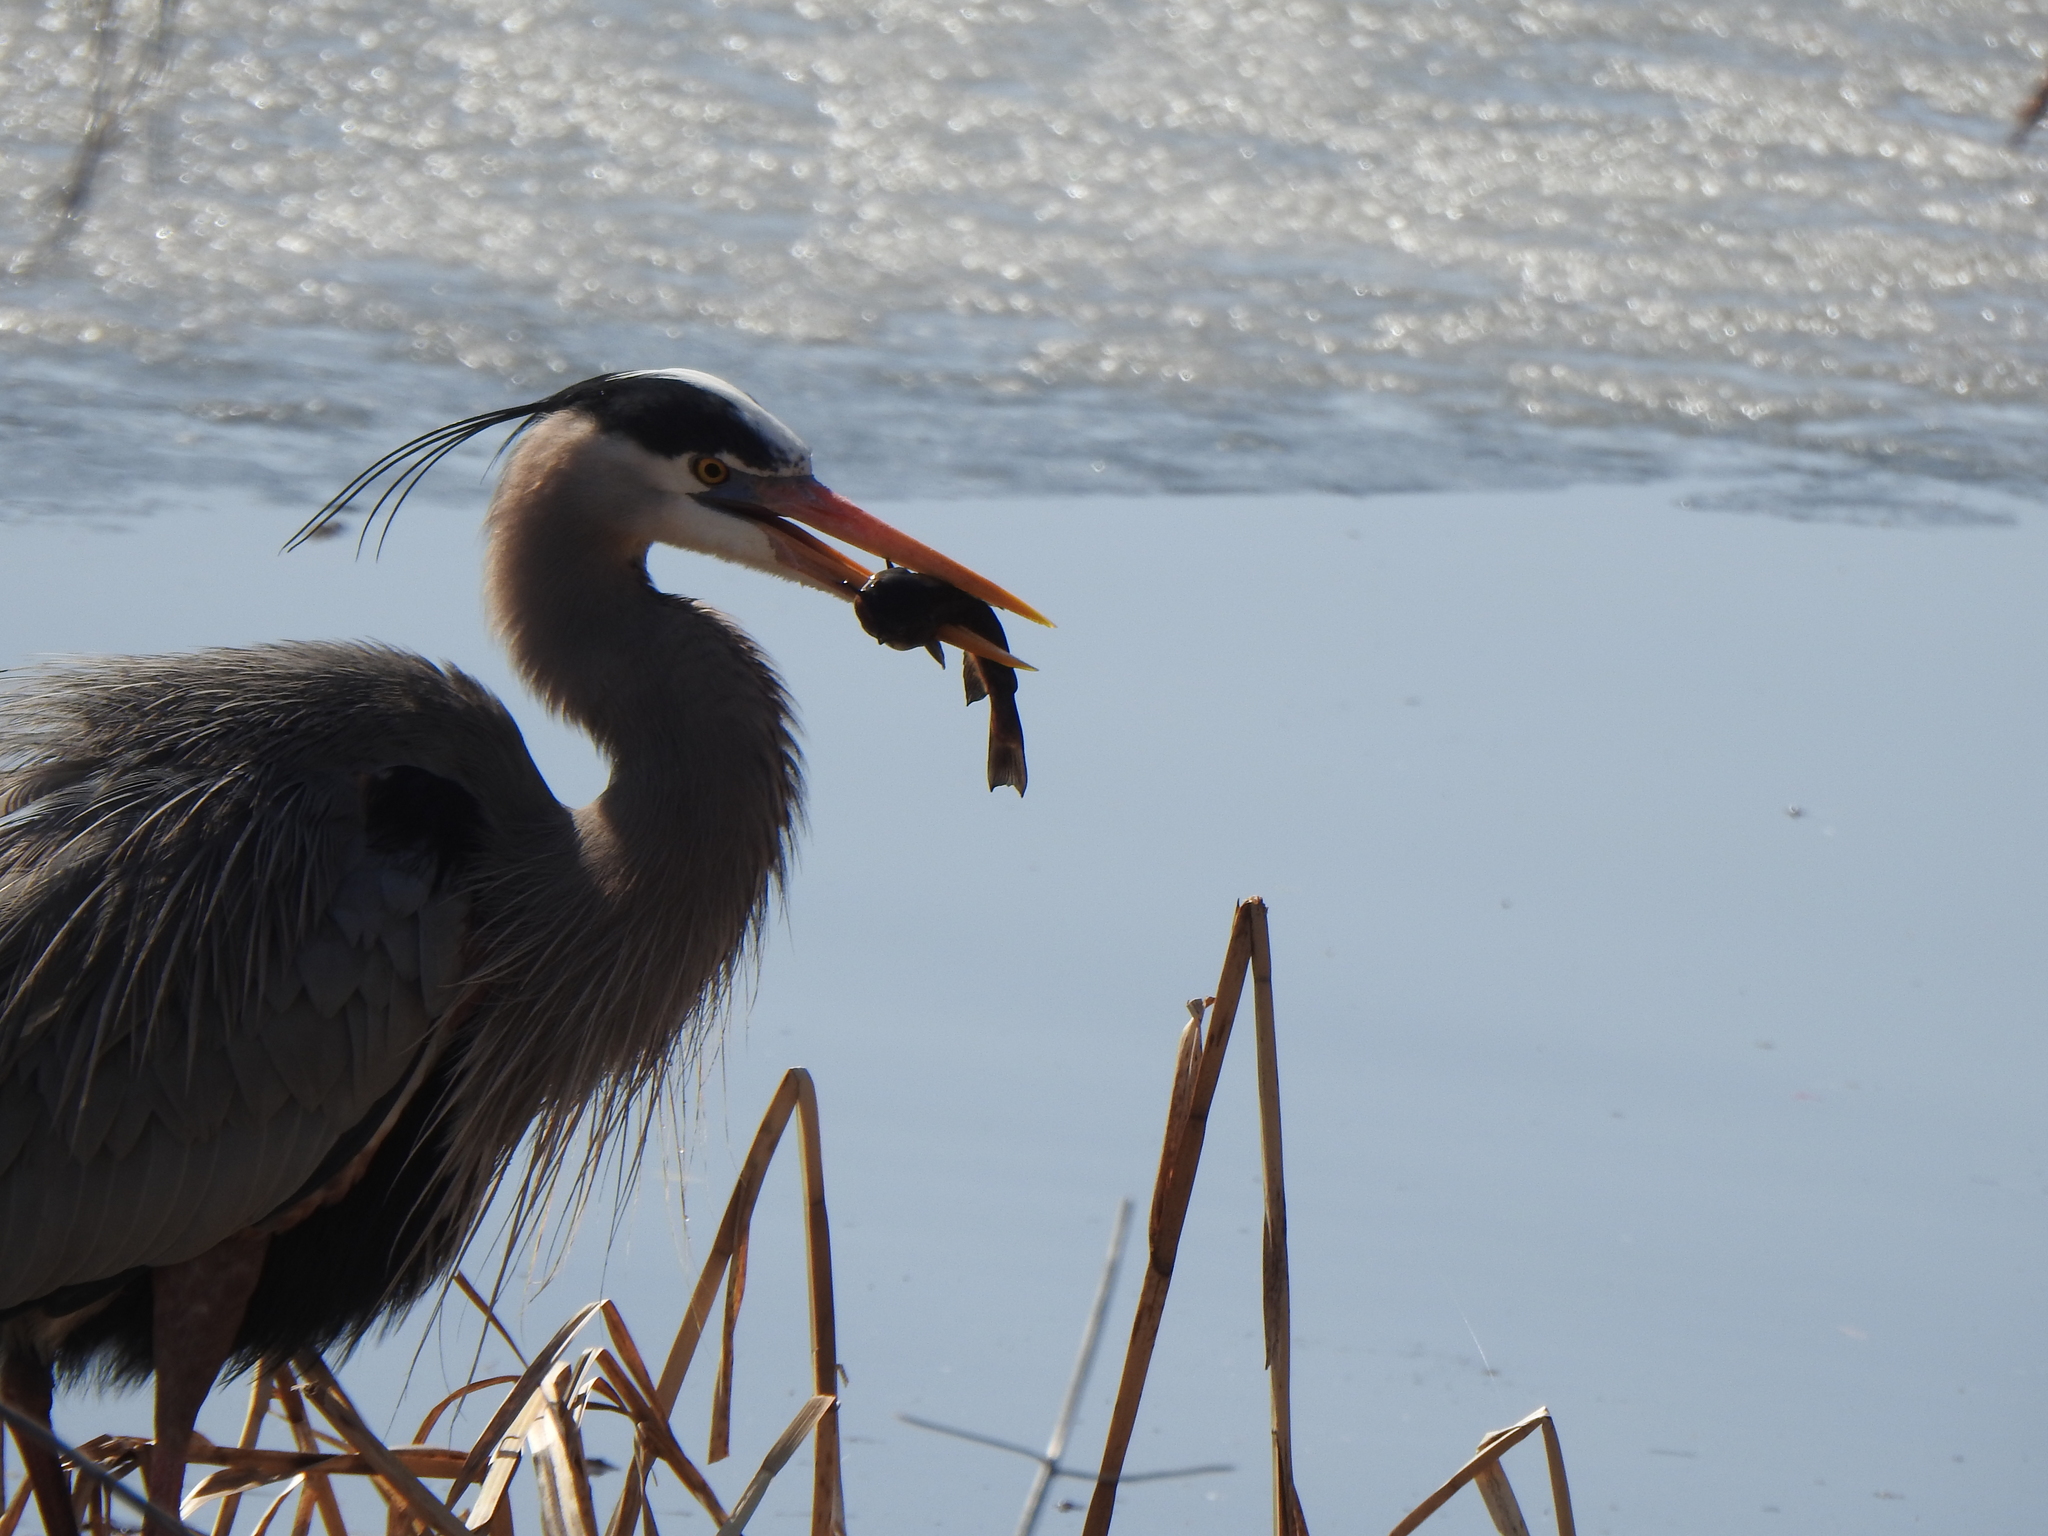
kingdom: Animalia
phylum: Chordata
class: Aves
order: Pelecaniformes
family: Ardeidae
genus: Ardea
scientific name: Ardea herodias
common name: Great blue heron
